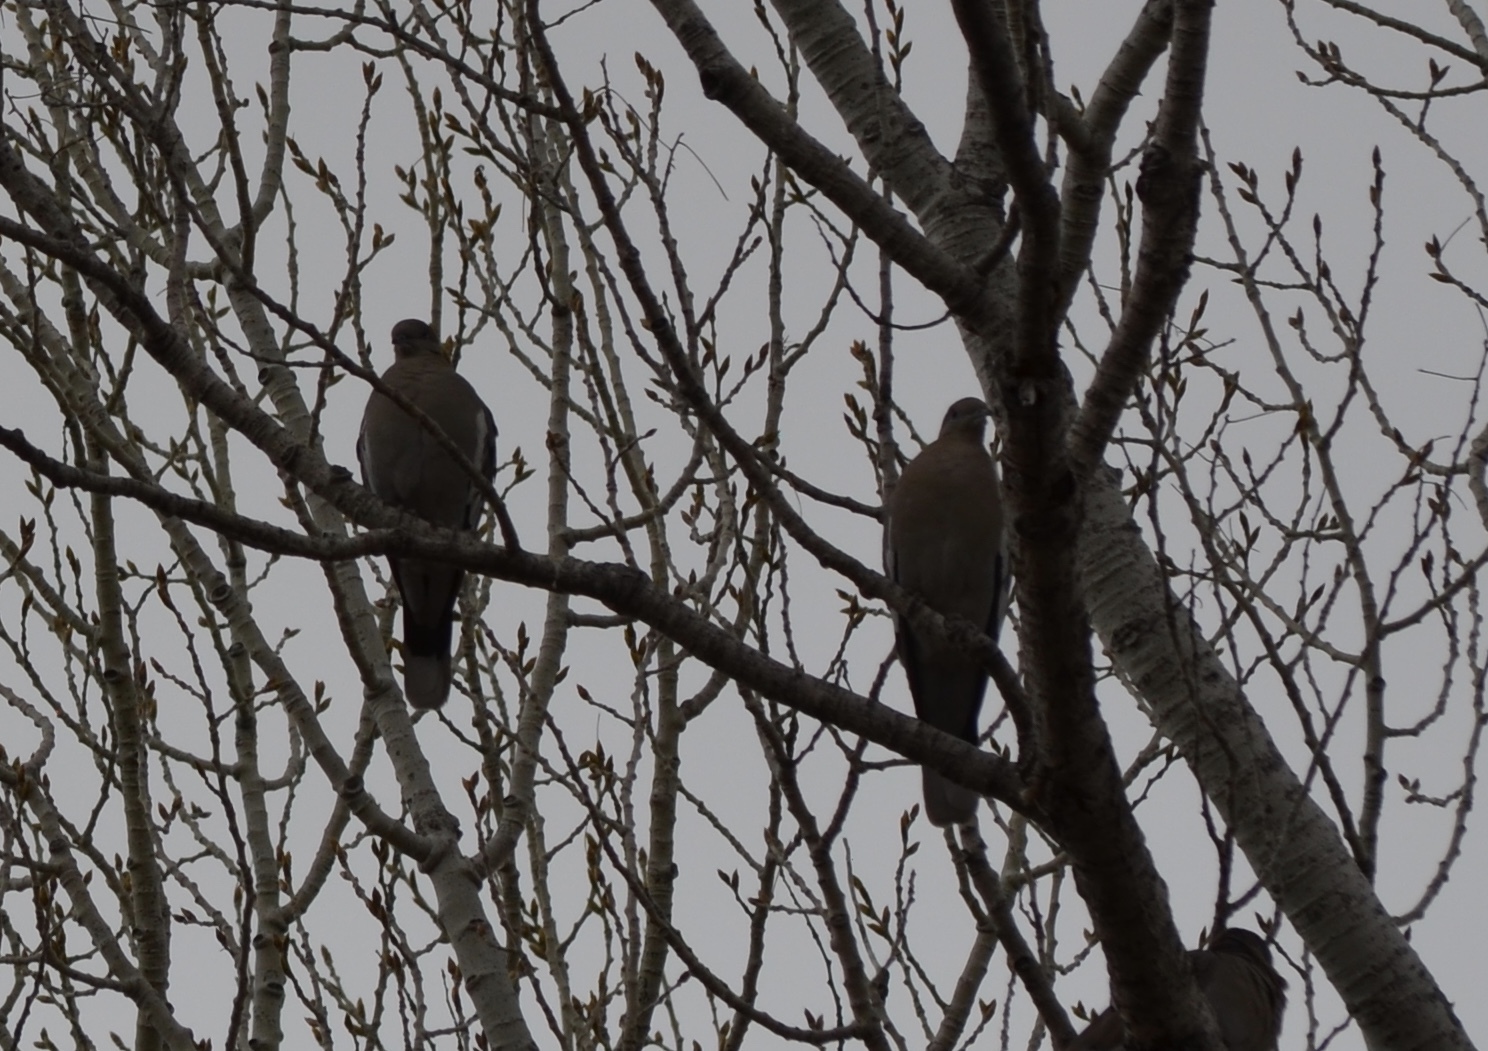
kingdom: Animalia
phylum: Chordata
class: Aves
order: Columbiformes
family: Columbidae
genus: Zenaida
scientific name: Zenaida asiatica
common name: White-winged dove
